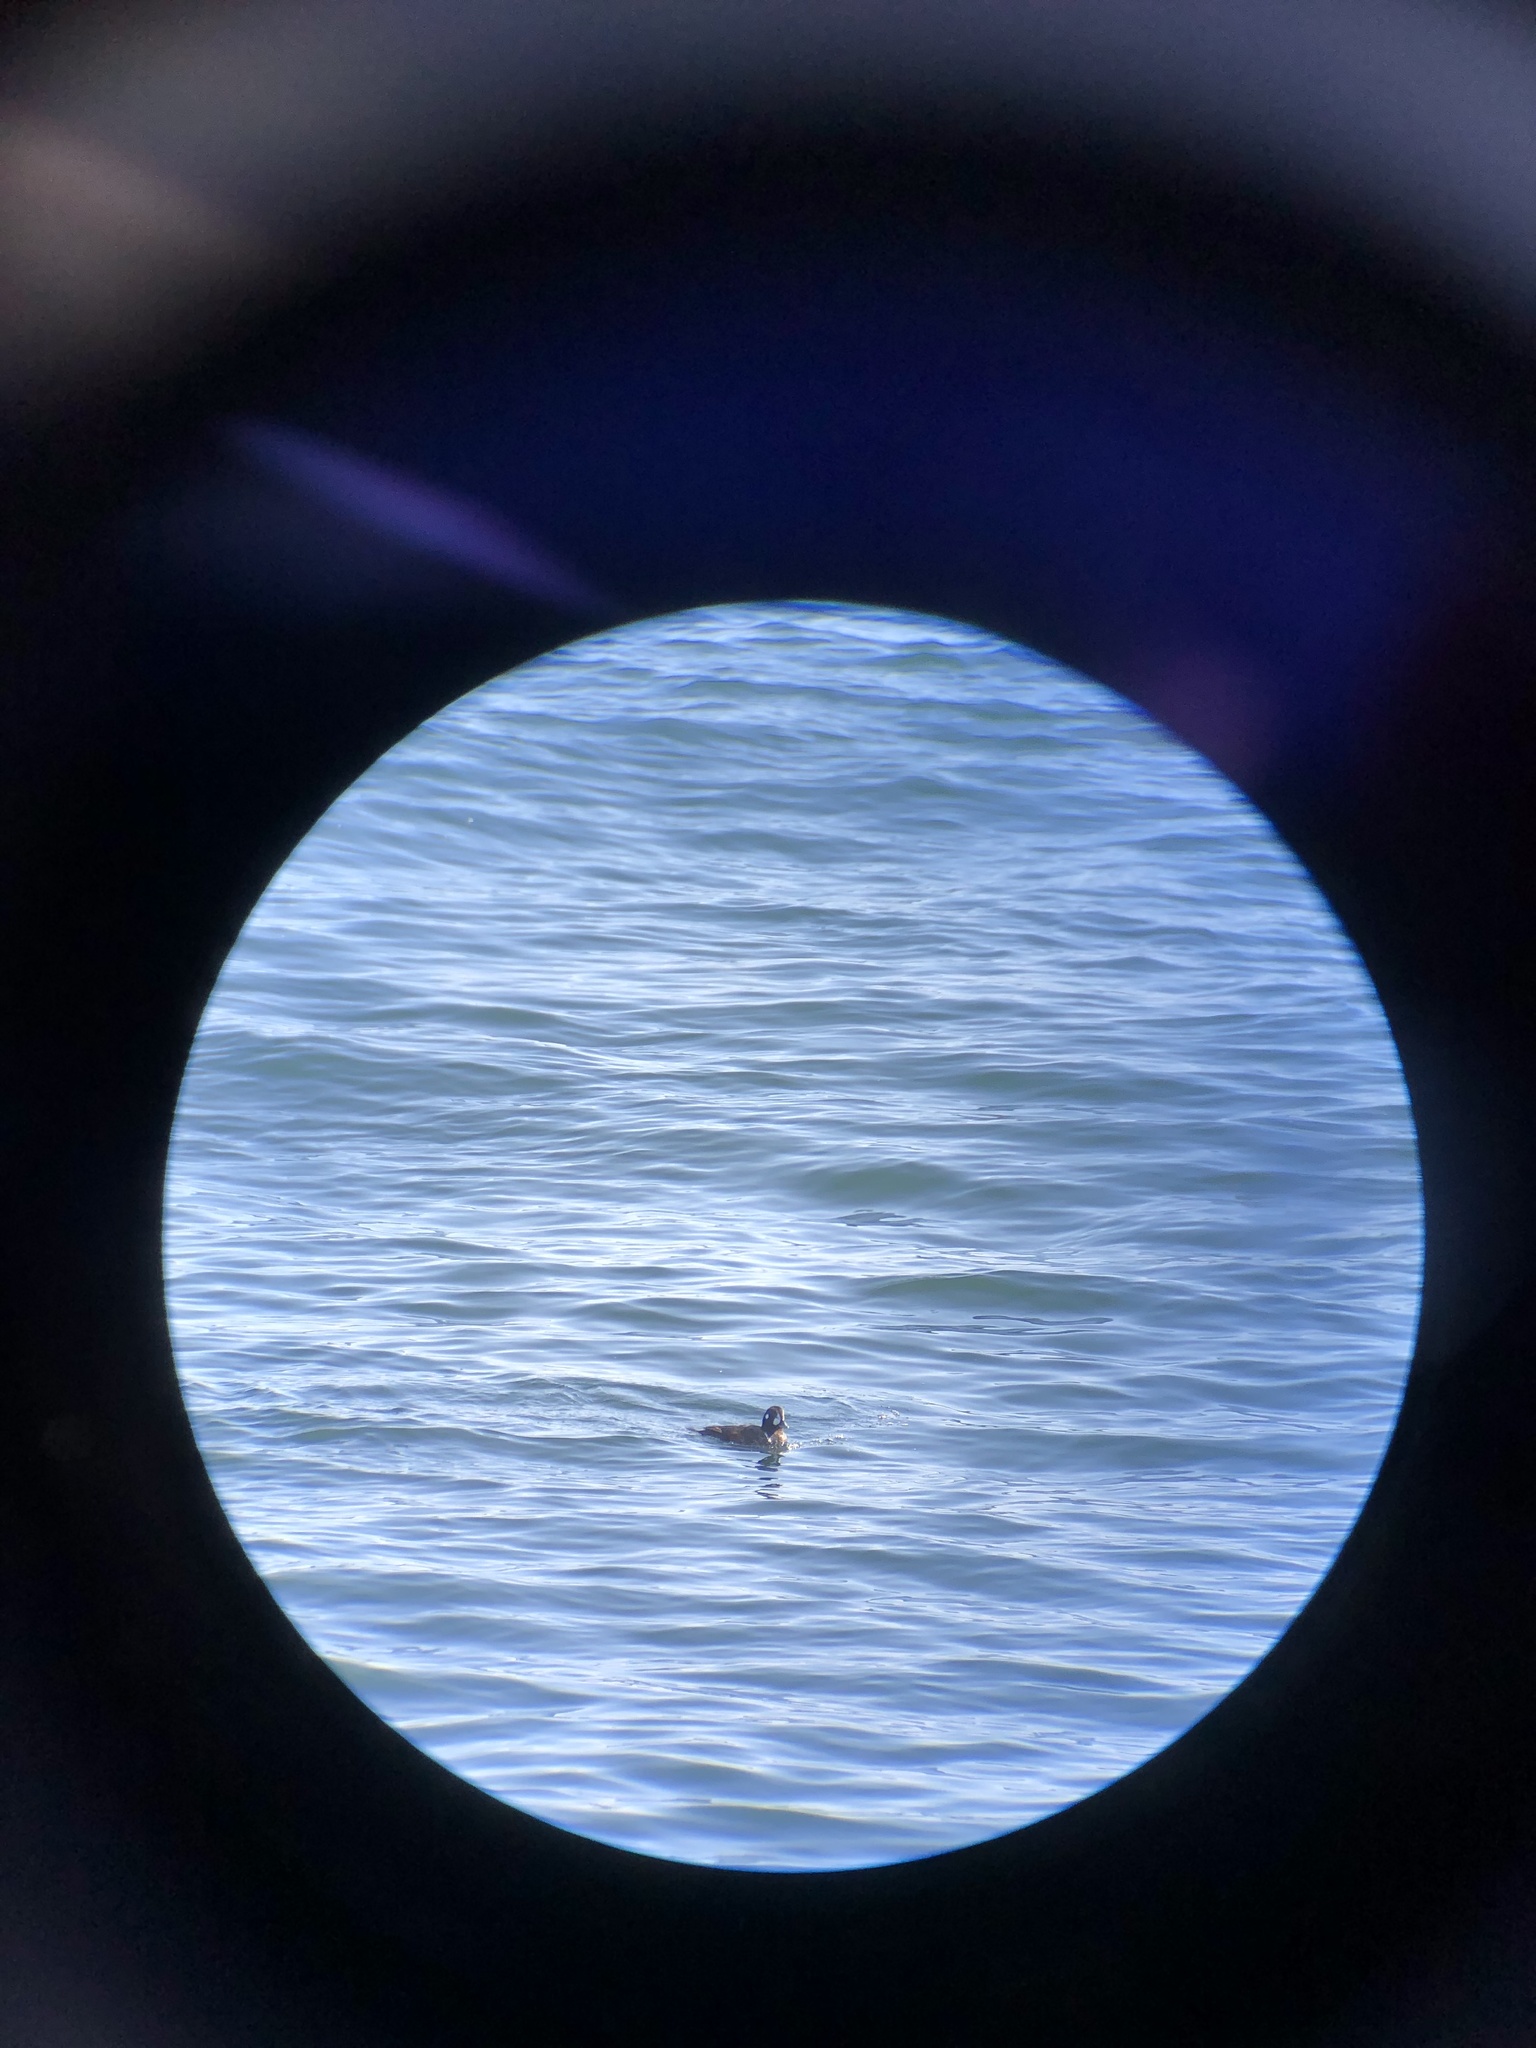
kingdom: Animalia
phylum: Chordata
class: Aves
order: Anseriformes
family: Anatidae
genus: Histrionicus
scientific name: Histrionicus histrionicus
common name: Harlequin duck
